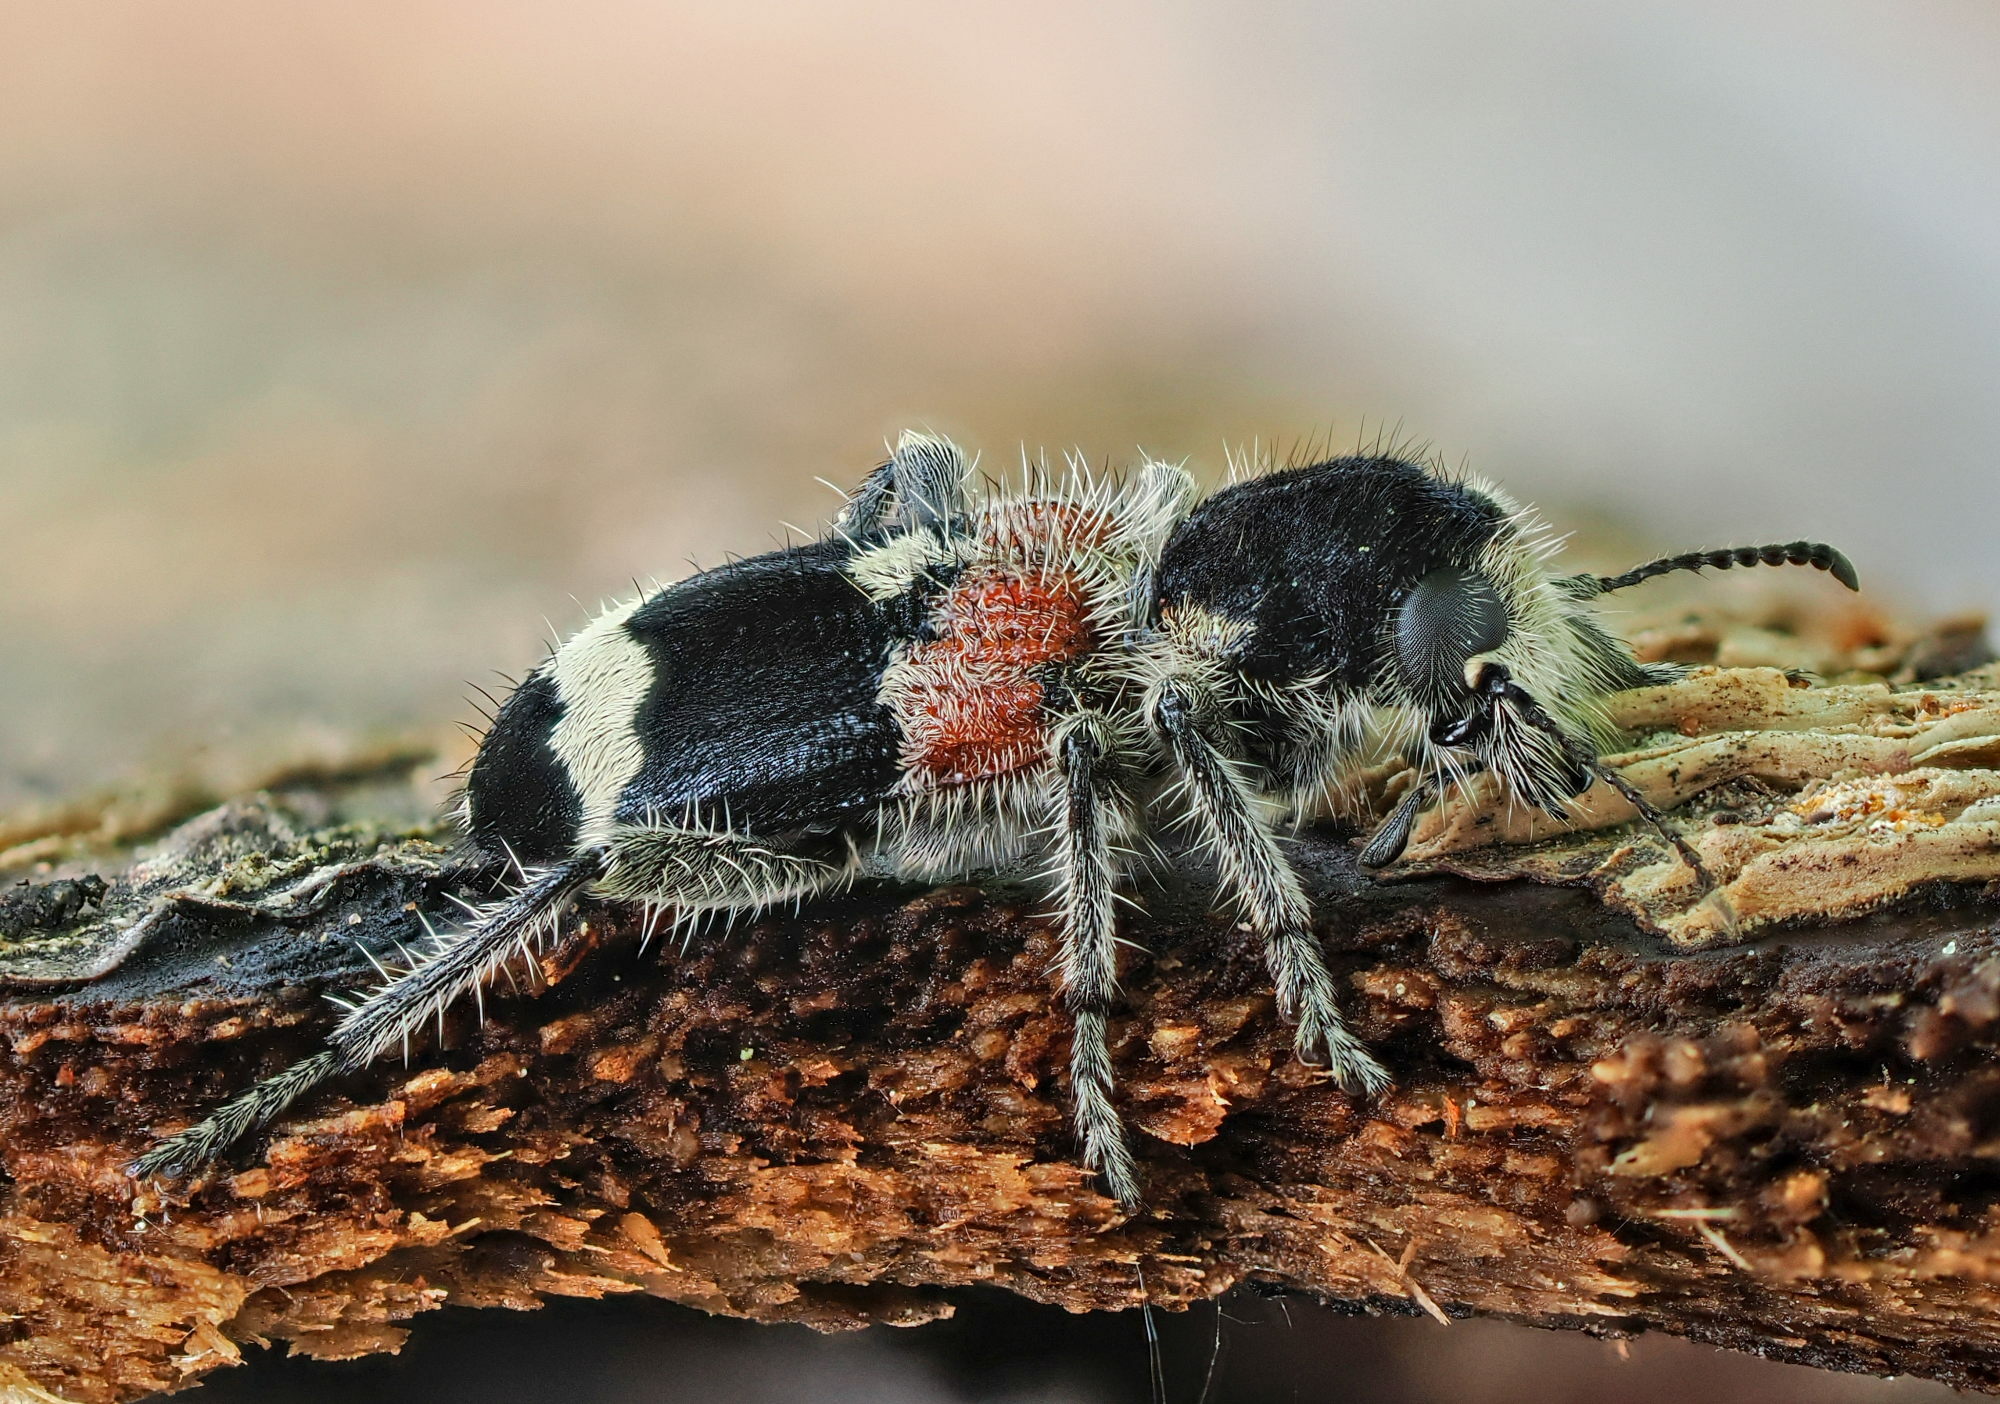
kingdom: Animalia
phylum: Arthropoda
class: Insecta
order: Coleoptera
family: Cleridae
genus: Clerus
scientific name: Clerus mutillarius
